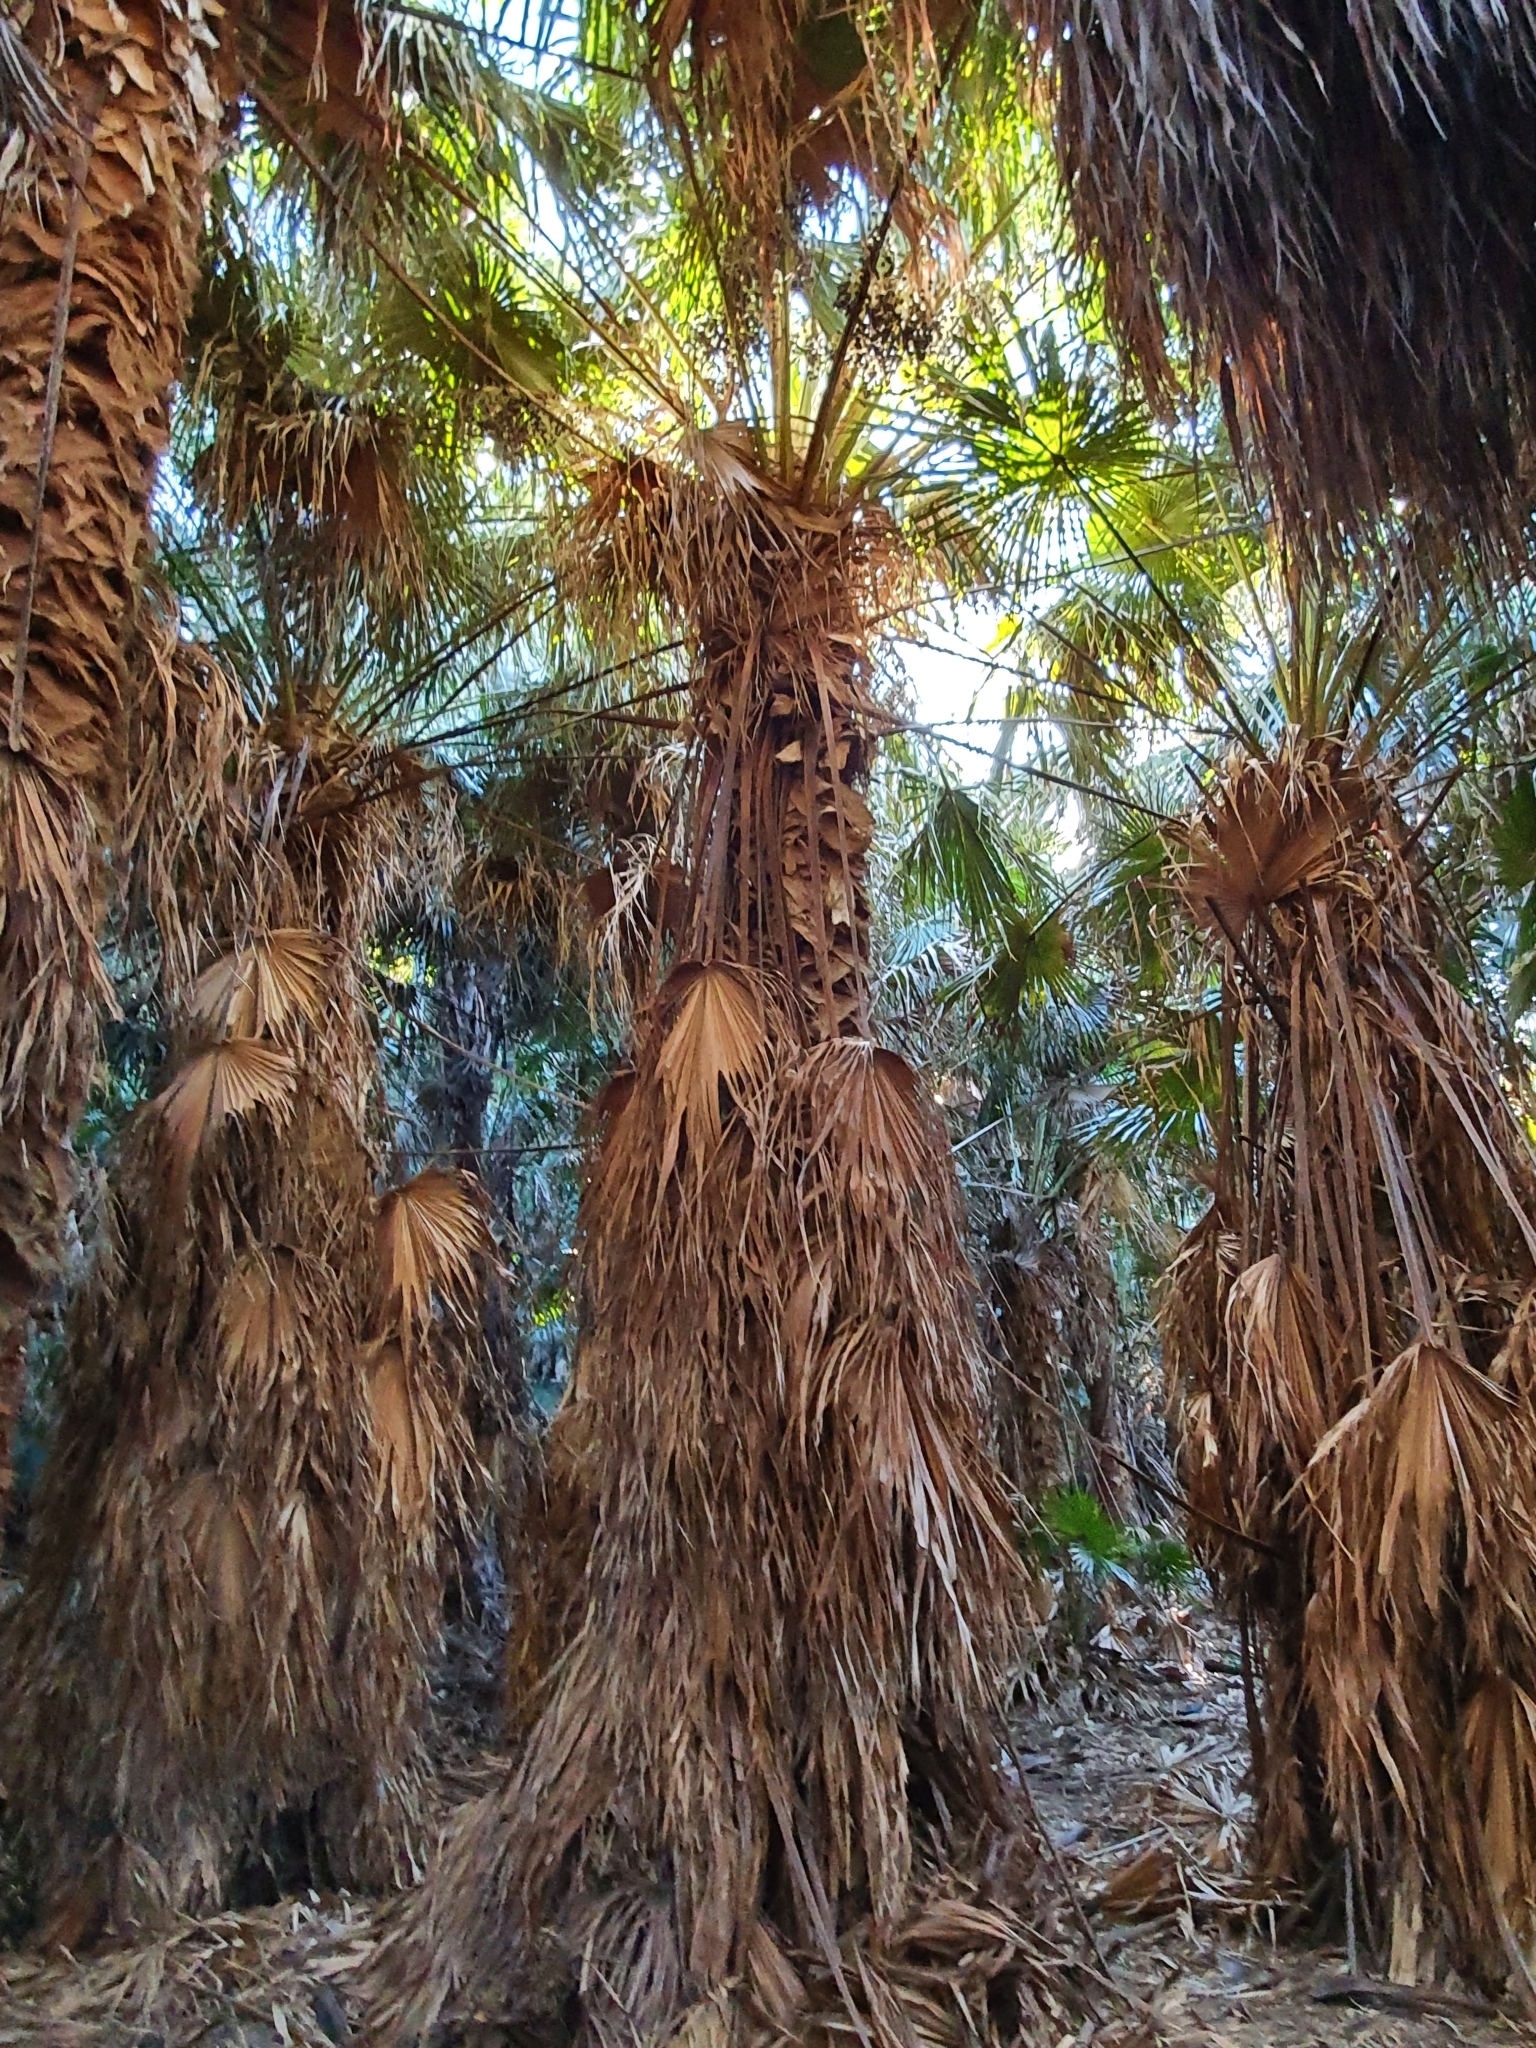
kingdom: Plantae
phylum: Tracheophyta
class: Liliopsida
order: Arecales
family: Arecaceae
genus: Livistona
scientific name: Livistona australis
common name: Cabbage fan palm
